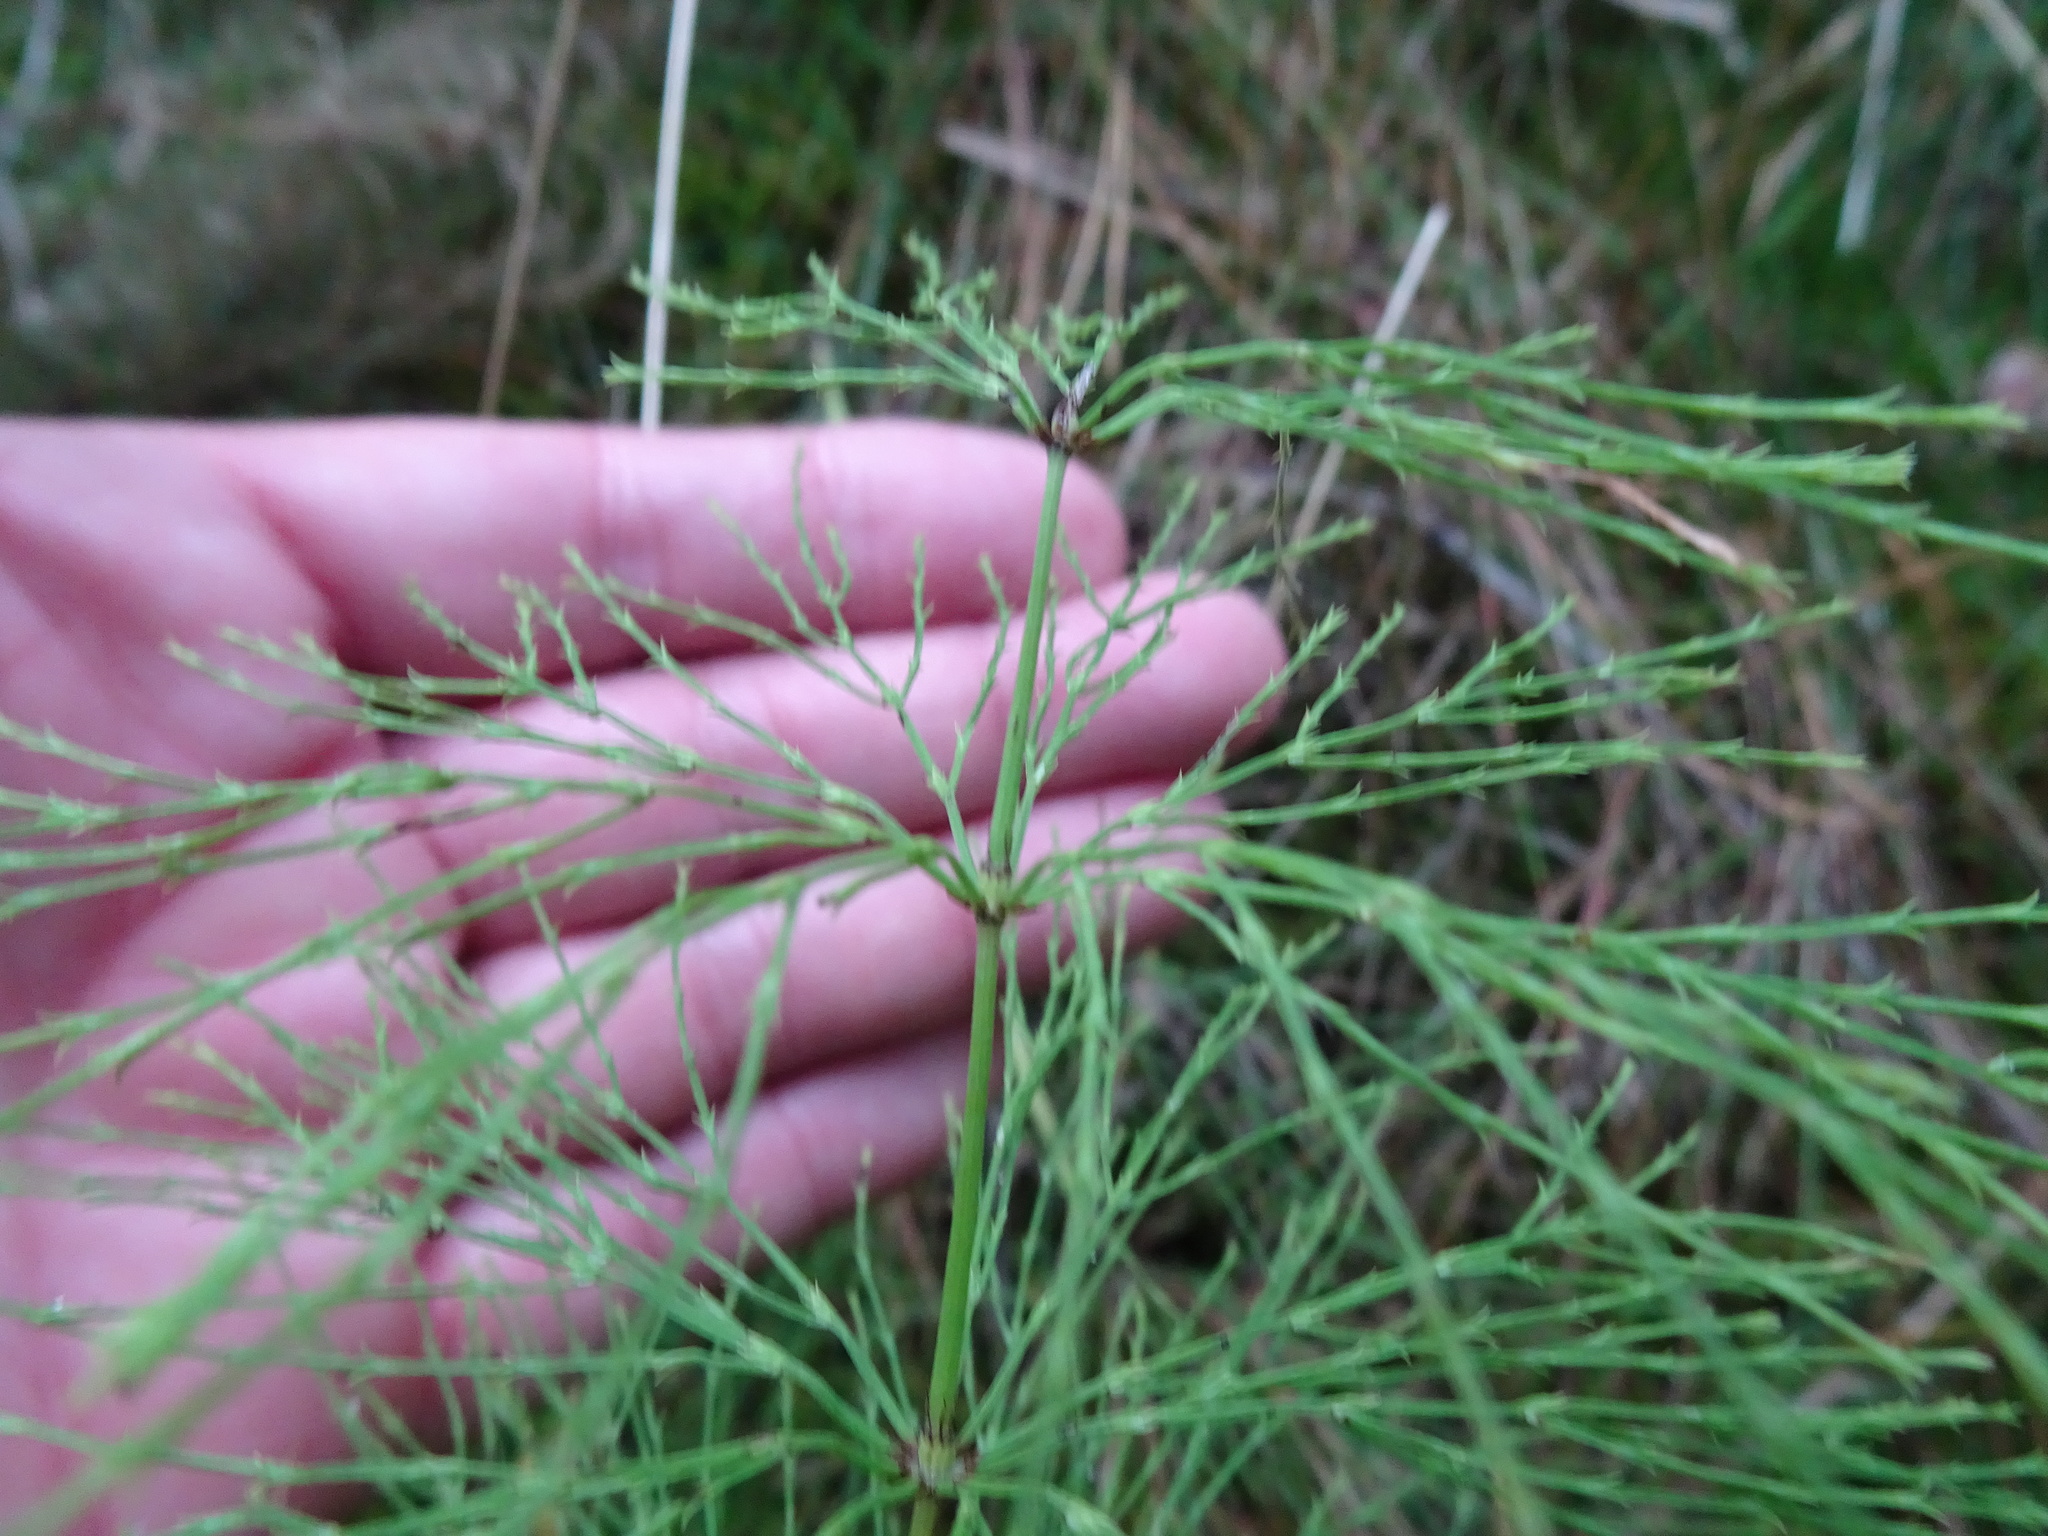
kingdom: Plantae
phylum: Tracheophyta
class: Polypodiopsida
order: Equisetales
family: Equisetaceae
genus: Equisetum
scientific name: Equisetum sylvaticum
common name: Wood horsetail
